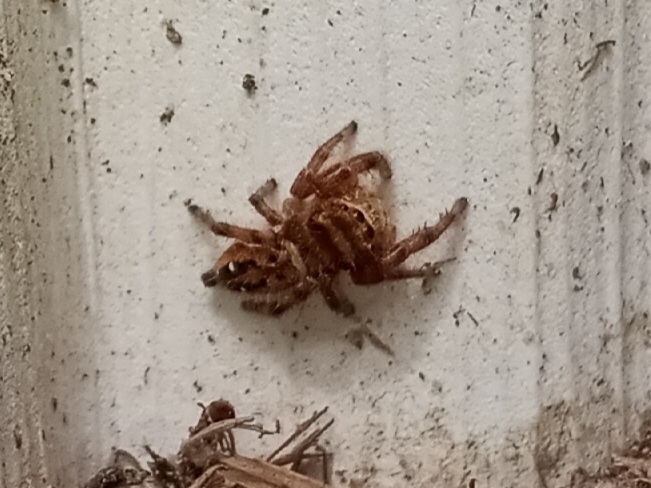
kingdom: Animalia
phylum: Arthropoda
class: Arachnida
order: Araneae
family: Salticidae
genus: Phidippus
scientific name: Phidippus clarus
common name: Brilliant jumping spider
